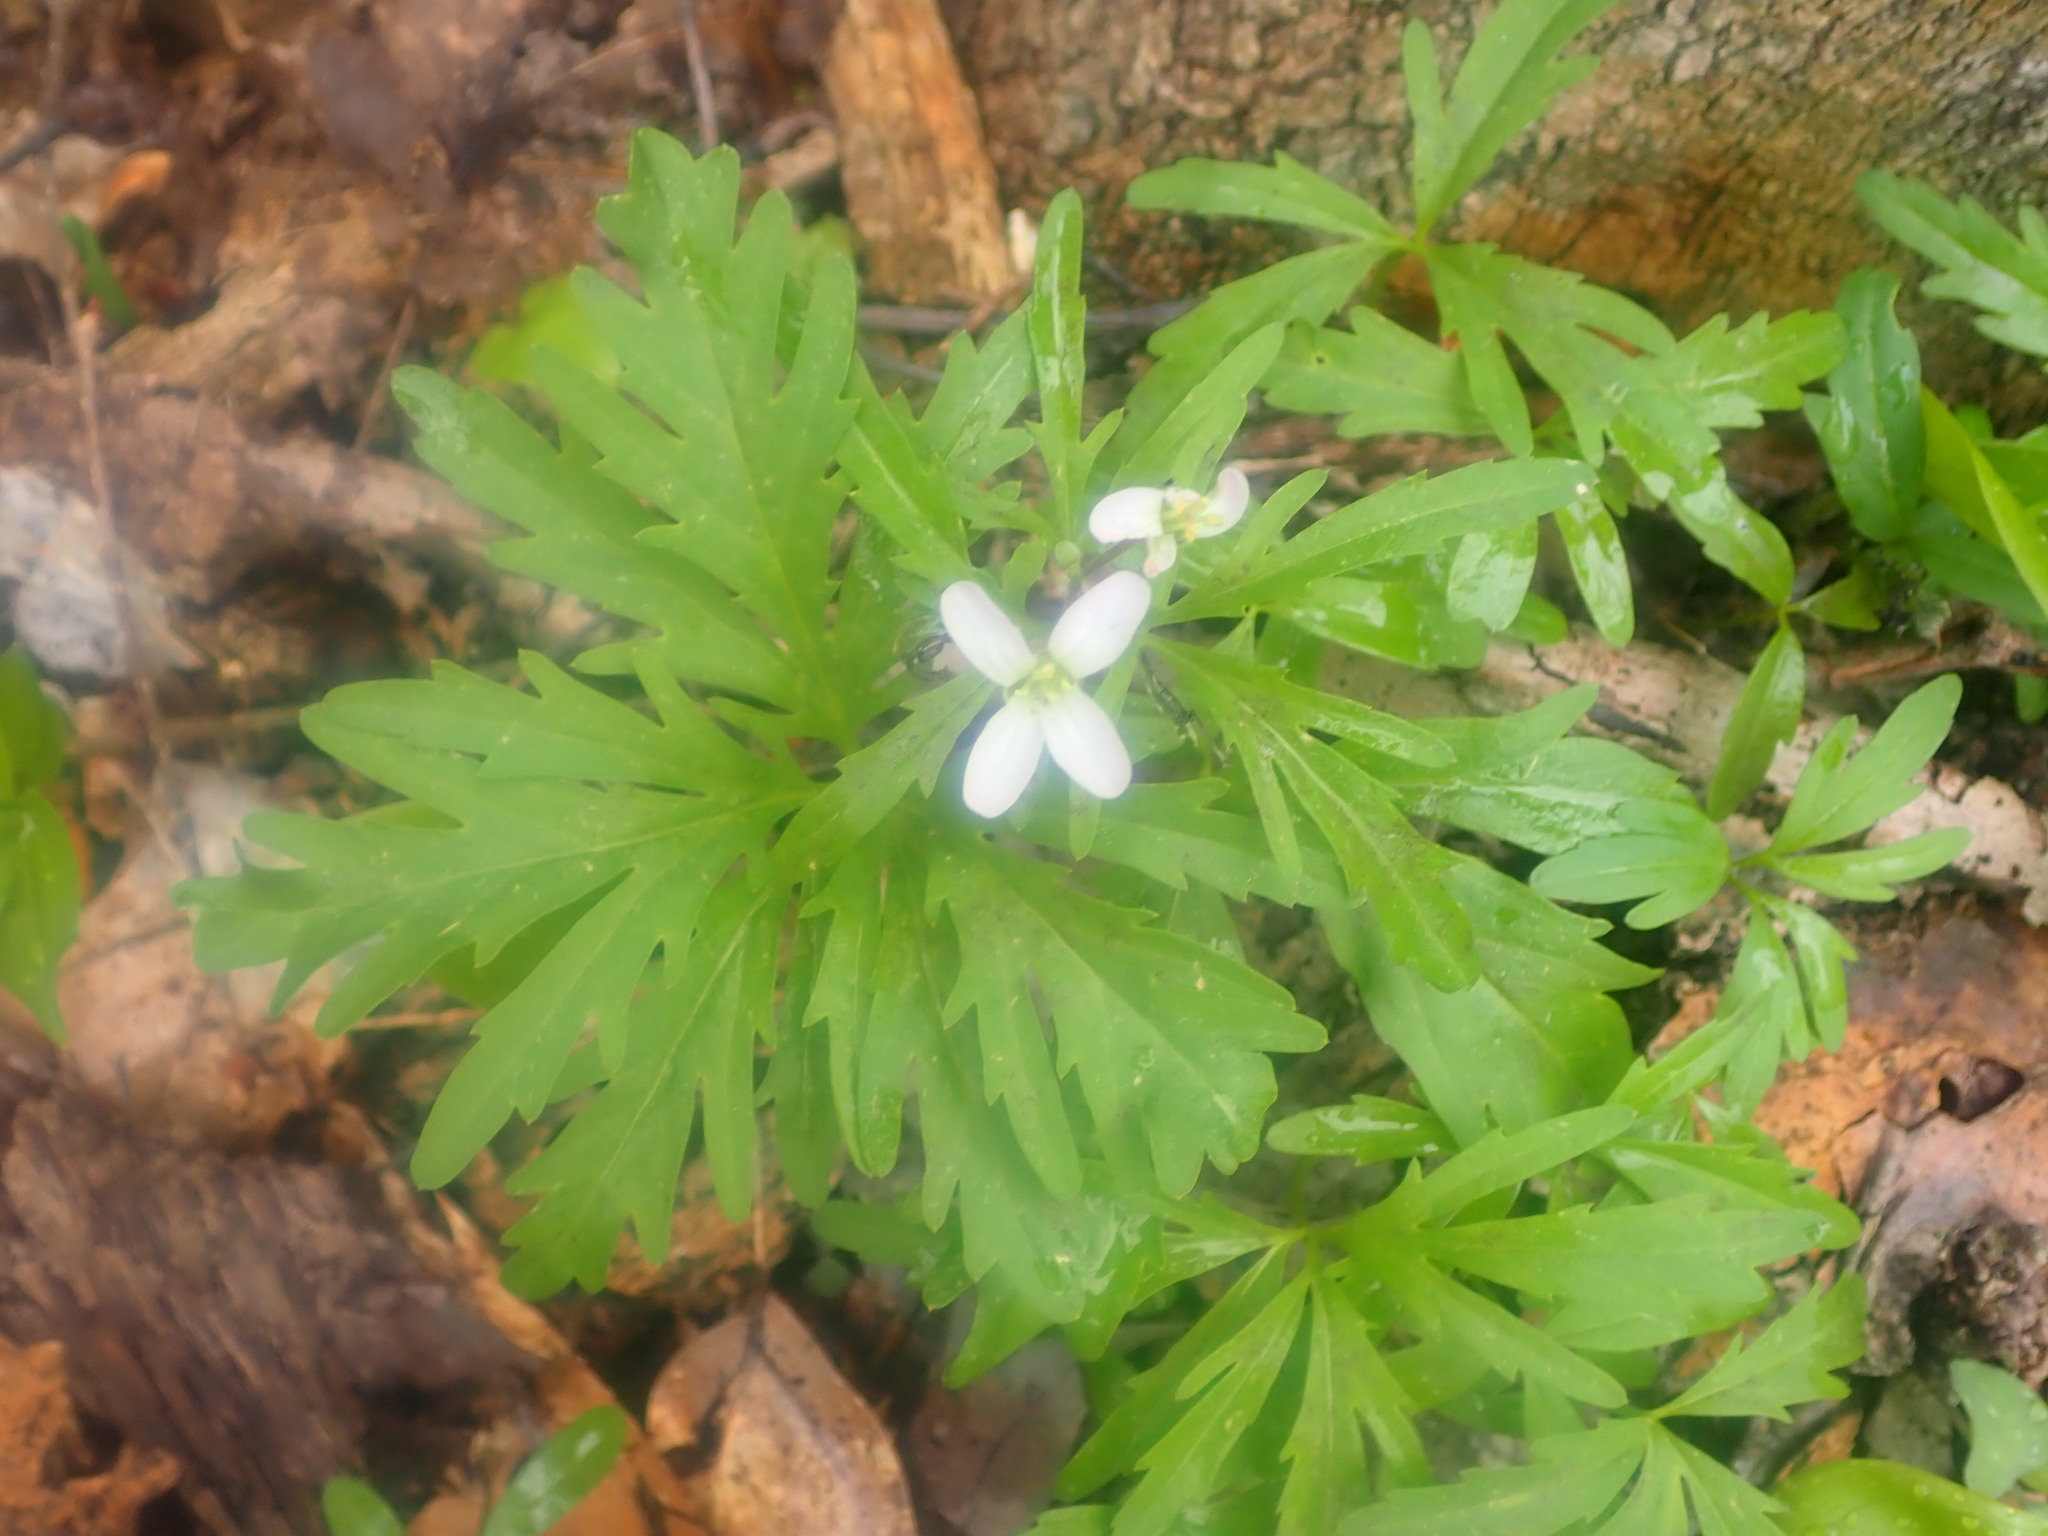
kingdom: Plantae
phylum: Tracheophyta
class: Magnoliopsida
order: Brassicales
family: Brassicaceae
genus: Cardamine
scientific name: Cardamine concatenata
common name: Cut-leaf toothcup
